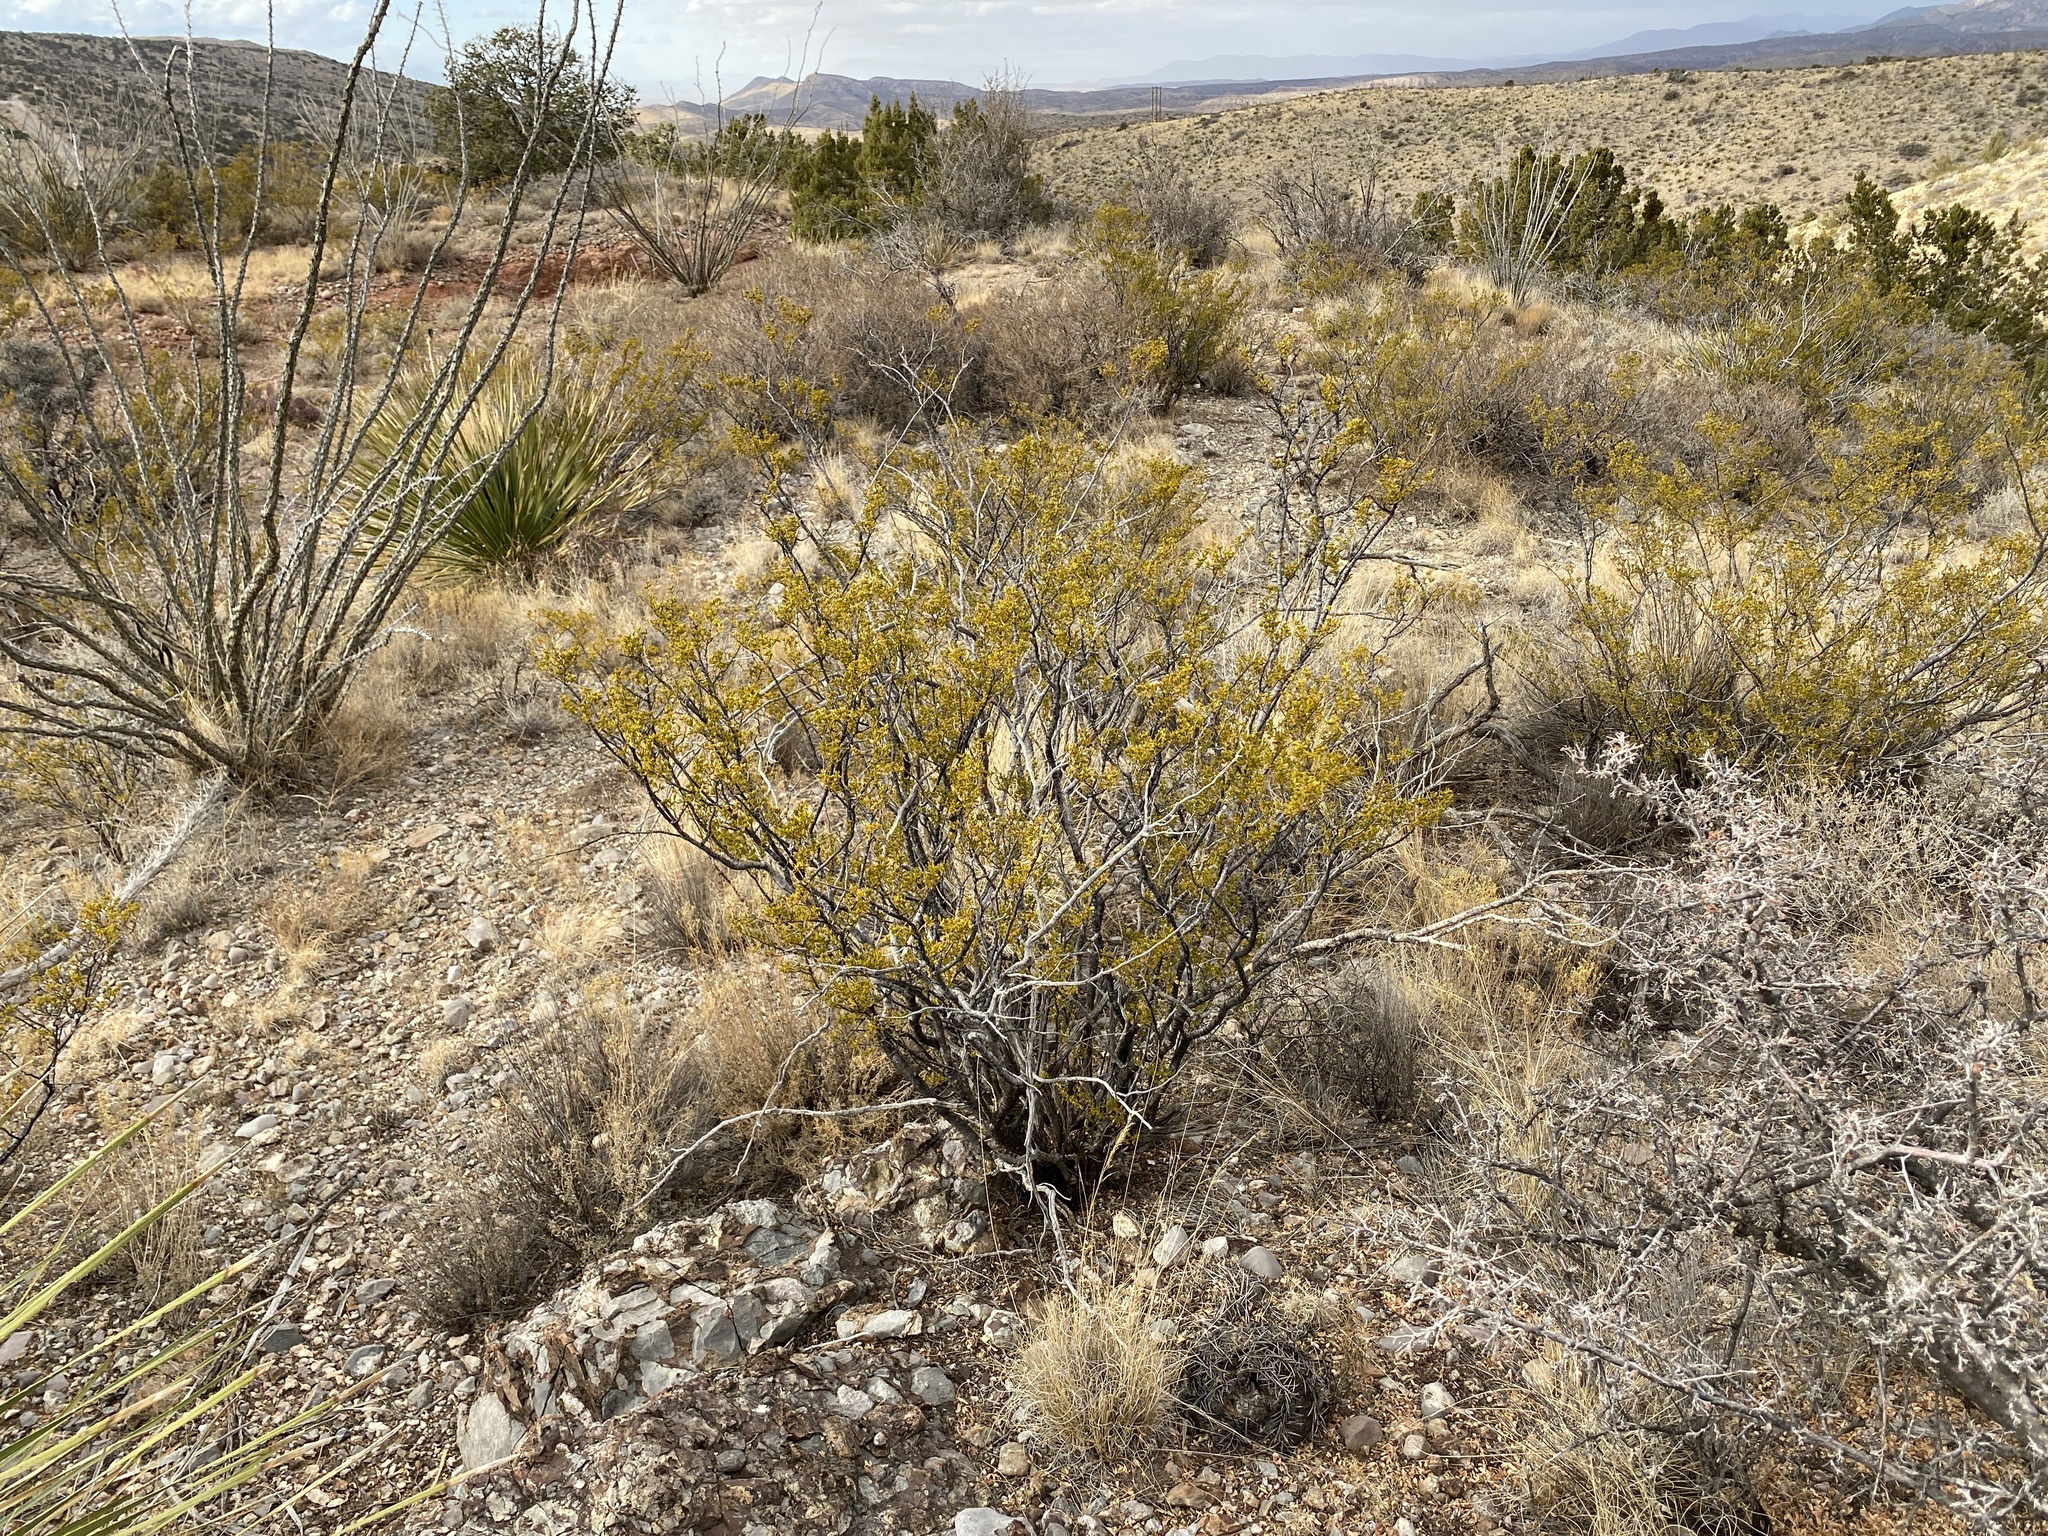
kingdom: Plantae
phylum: Tracheophyta
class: Magnoliopsida
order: Zygophyllales
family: Zygophyllaceae
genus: Larrea
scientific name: Larrea tridentata
